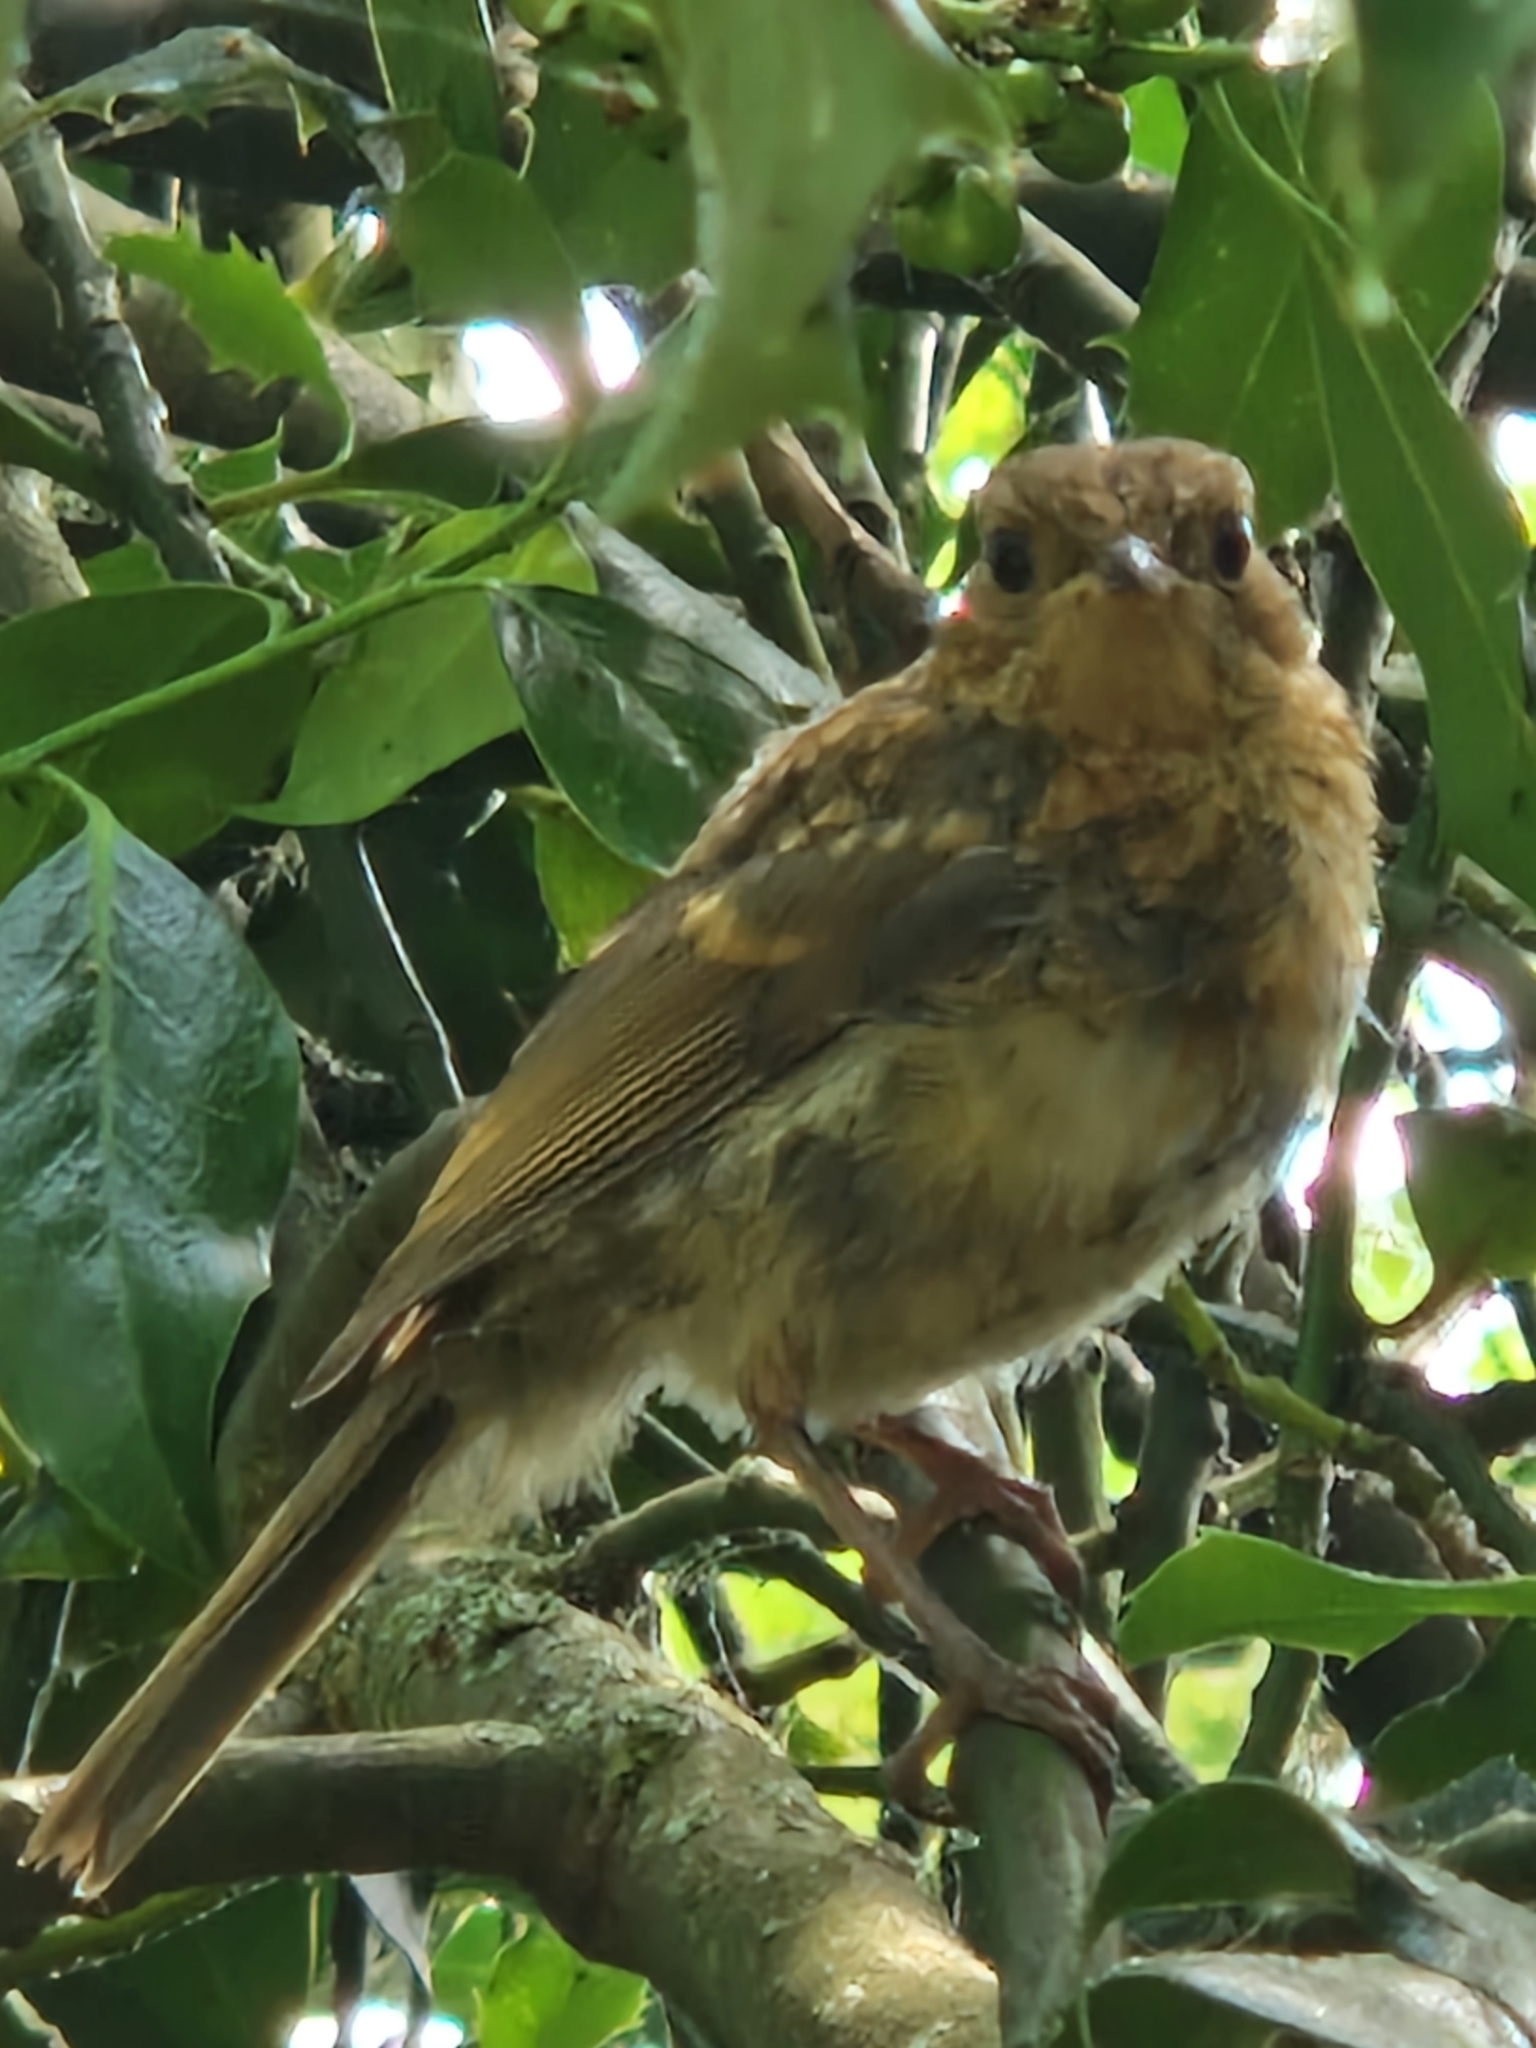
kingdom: Animalia
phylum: Chordata
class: Aves
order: Passeriformes
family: Muscicapidae
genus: Erithacus
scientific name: Erithacus rubecula
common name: European robin
